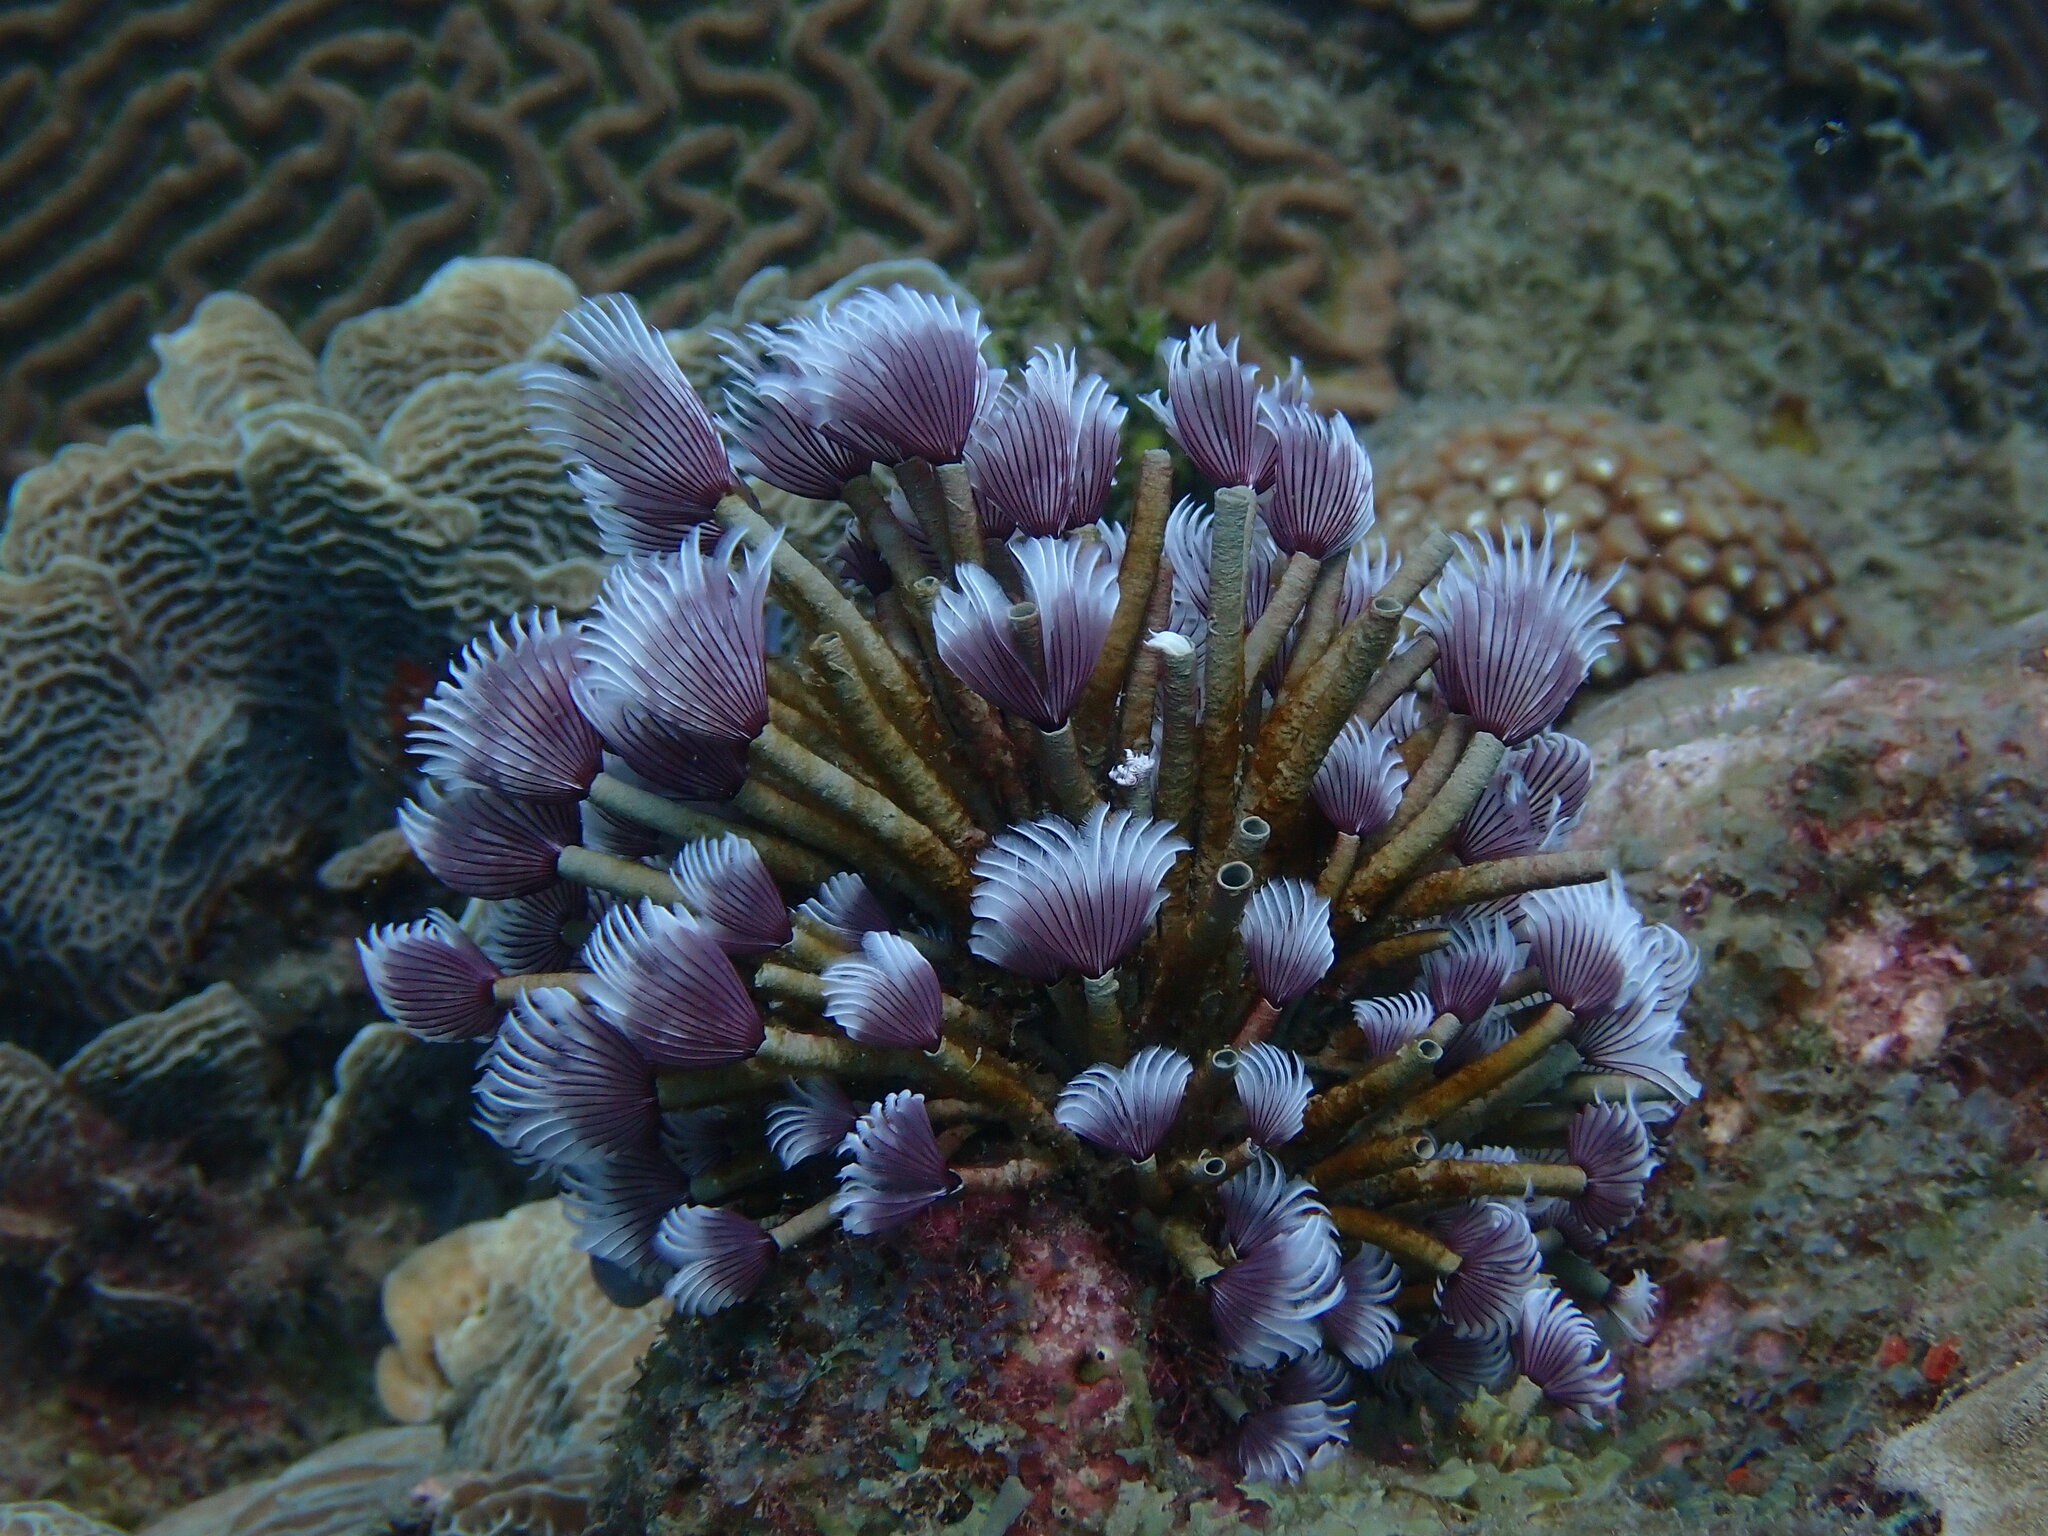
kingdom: Animalia
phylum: Annelida
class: Polychaeta
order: Sabellida
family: Sabellidae
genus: Bispira
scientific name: Bispira brunnea
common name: Social feather duster
